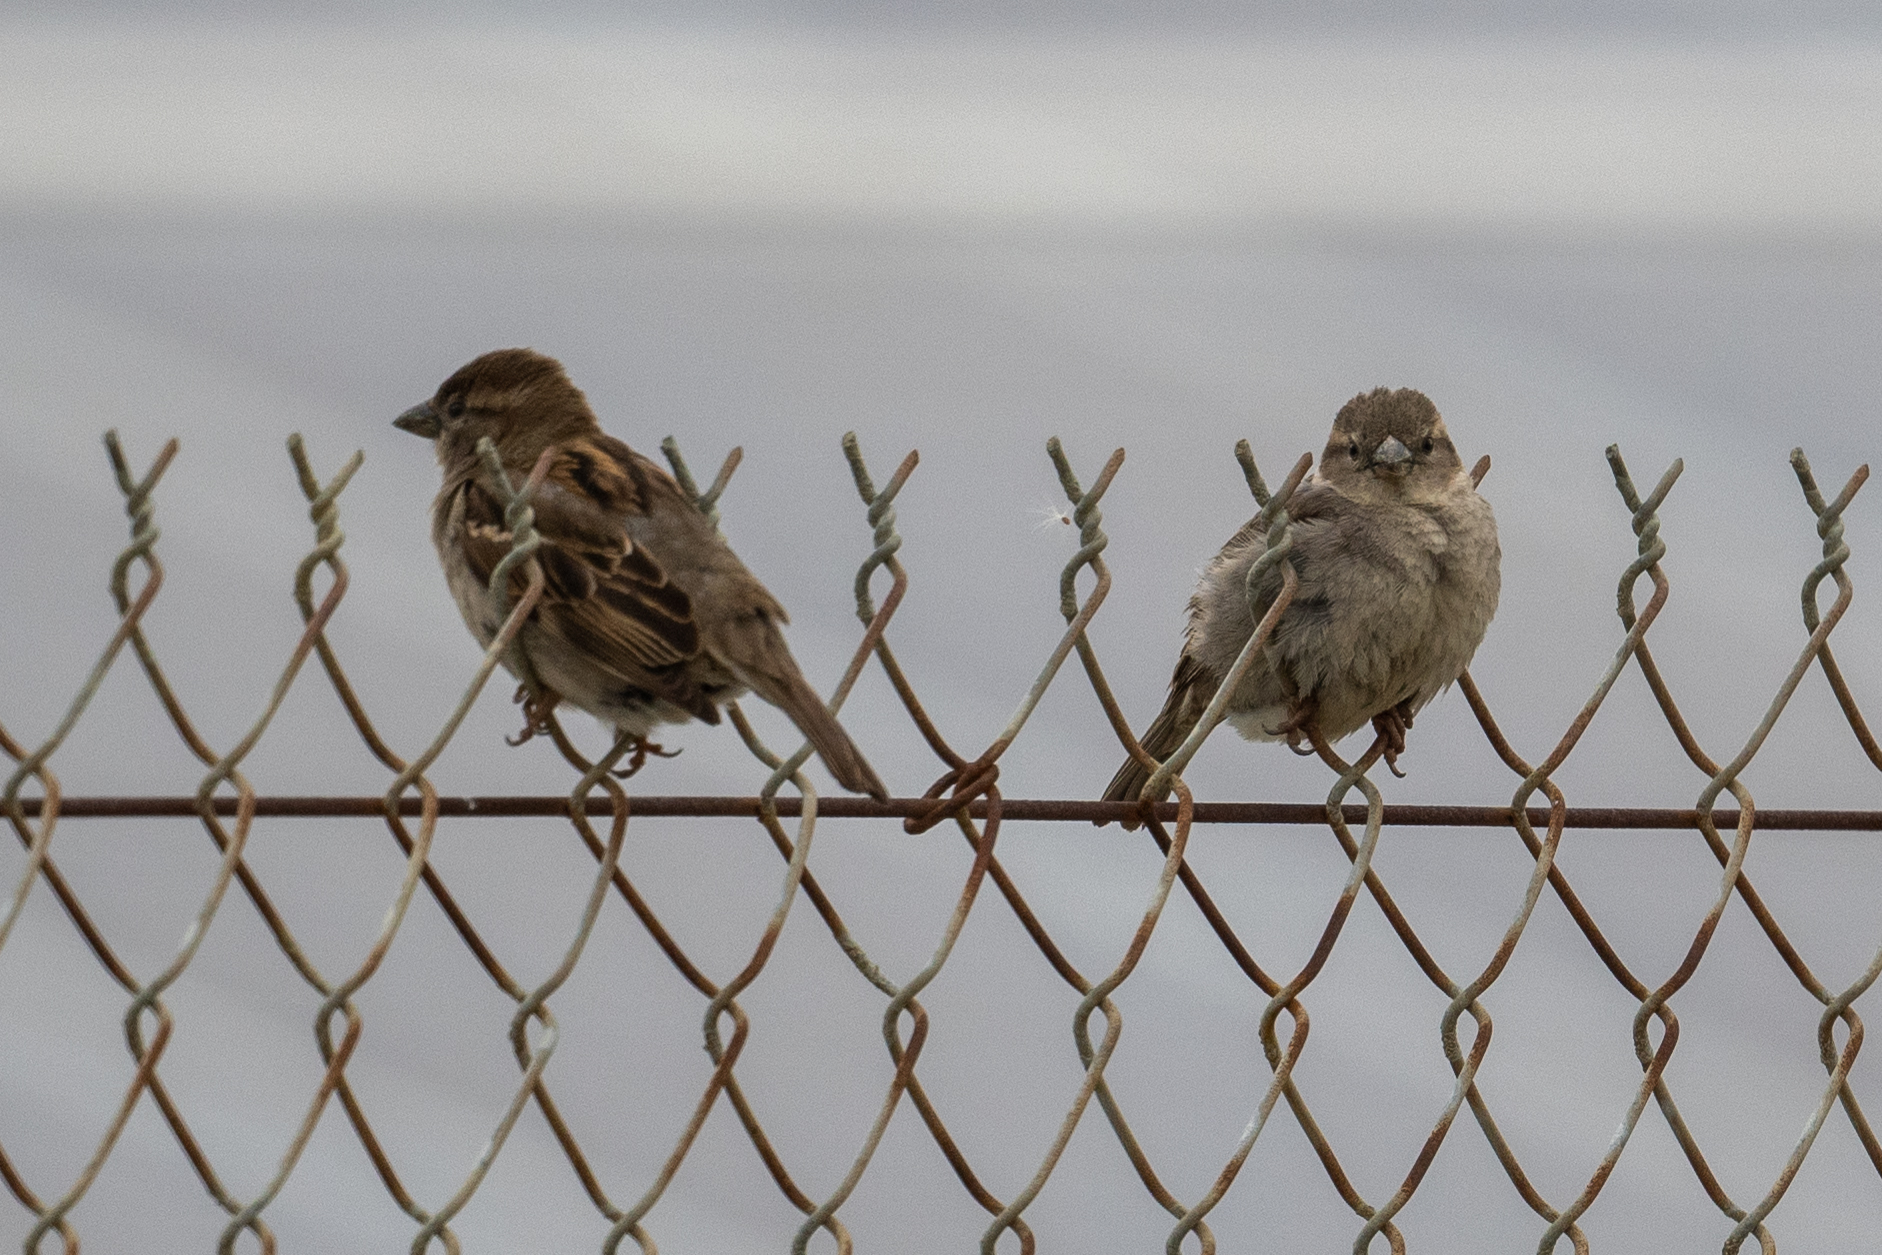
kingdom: Animalia
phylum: Chordata
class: Aves
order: Passeriformes
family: Passeridae
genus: Passer
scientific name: Passer domesticus
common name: House sparrow
